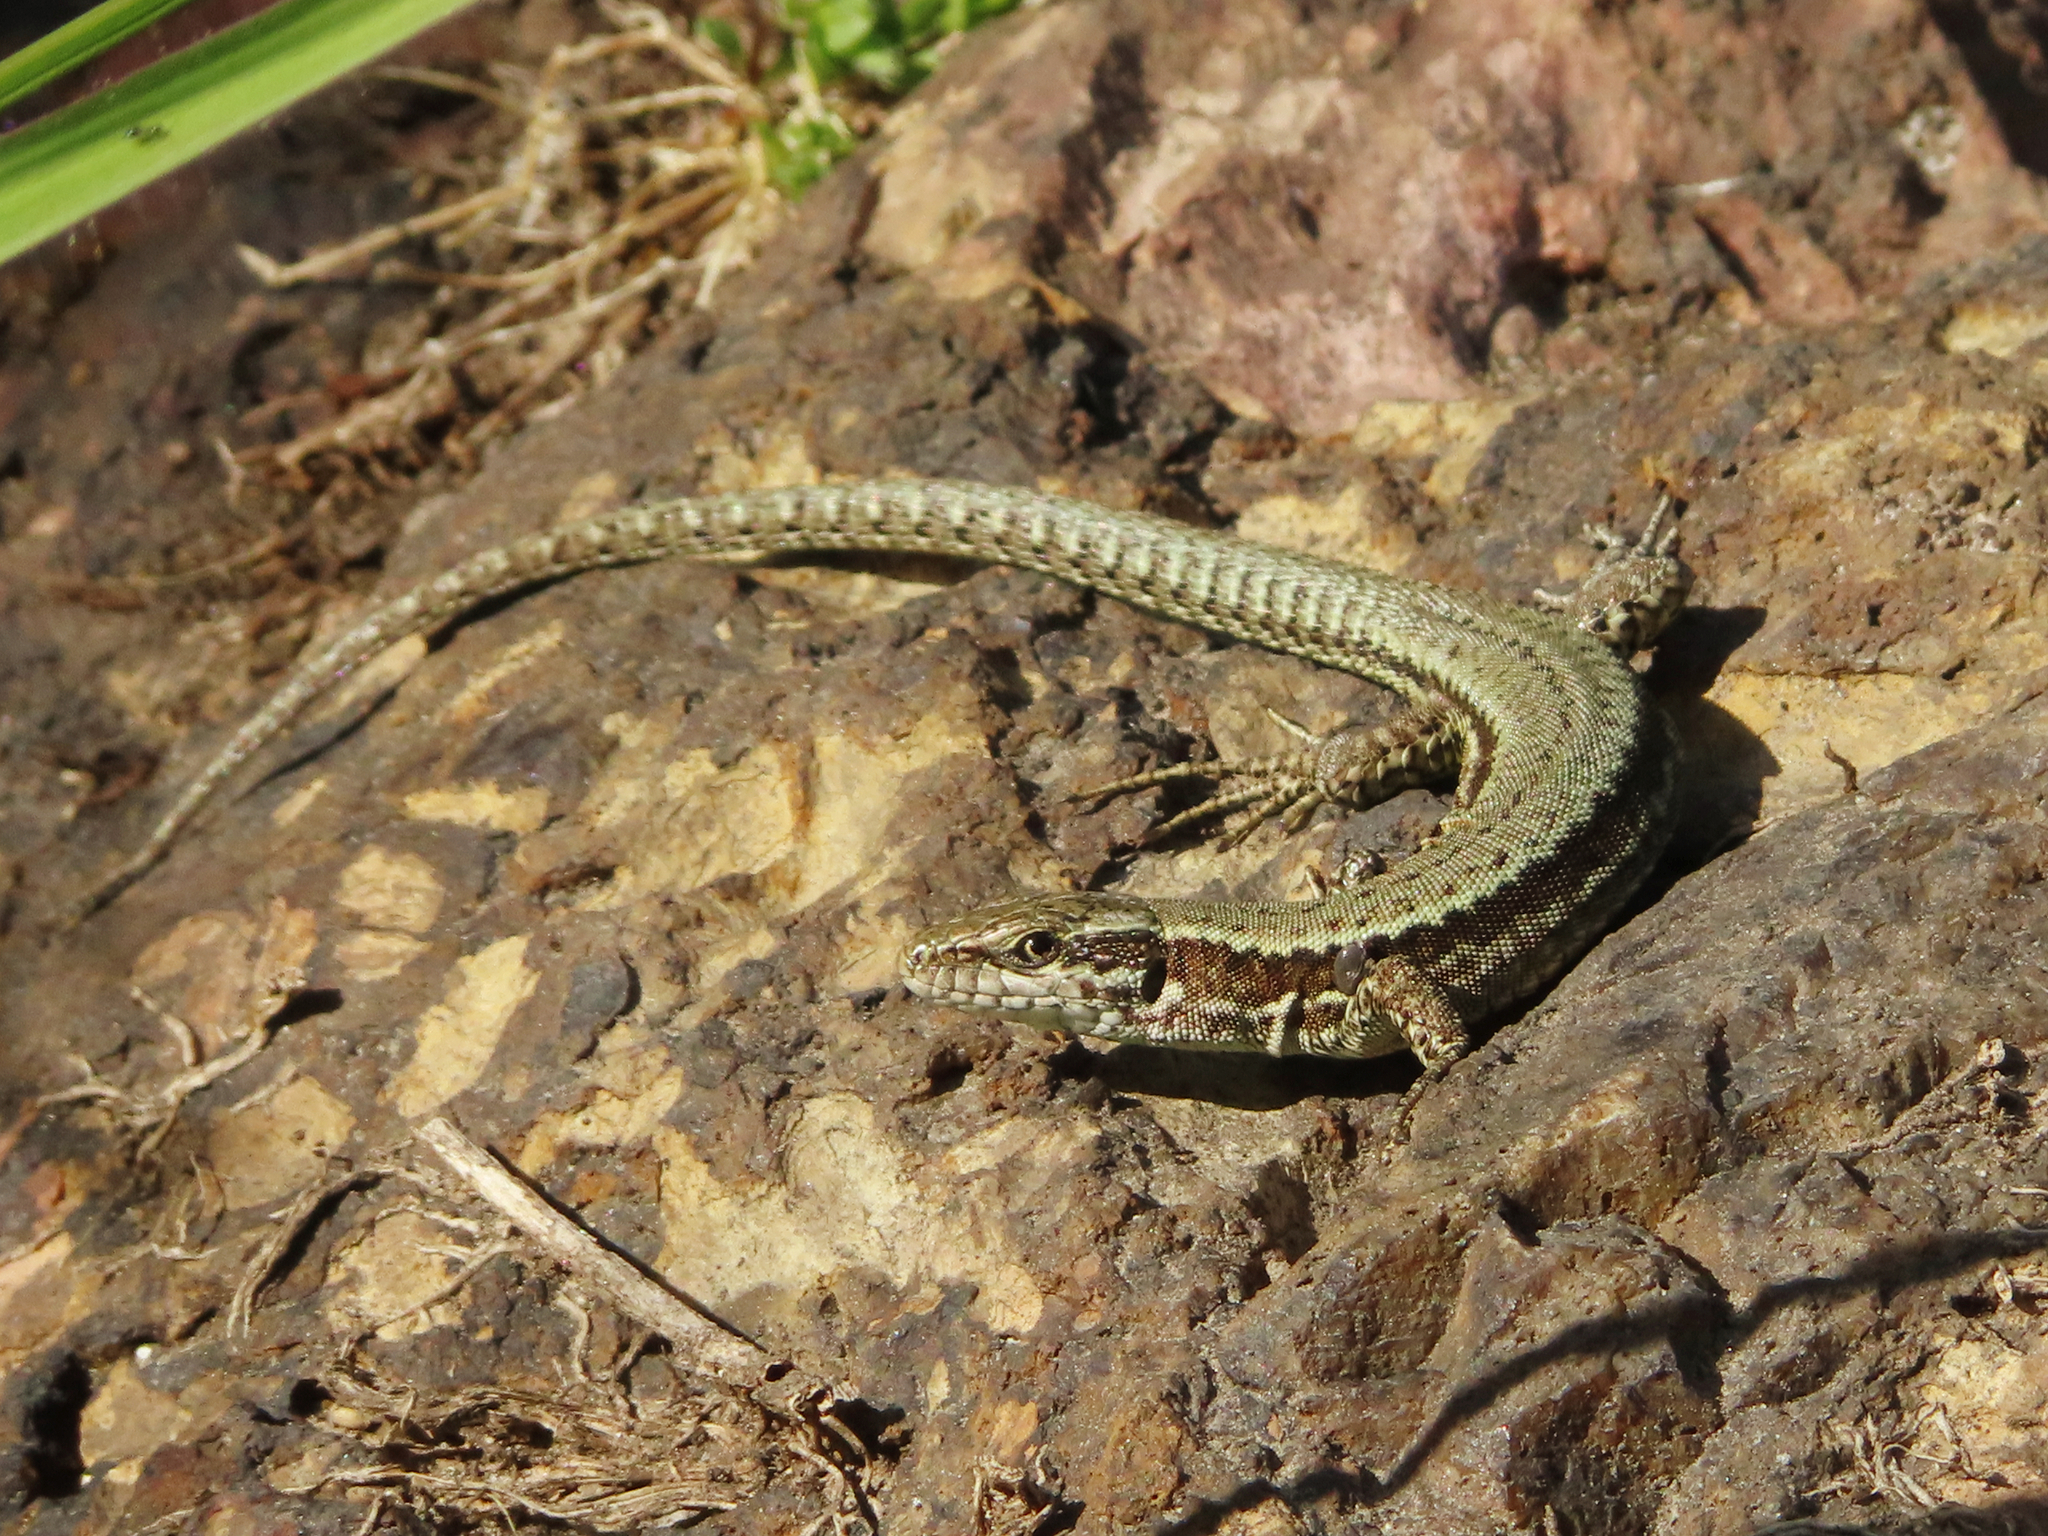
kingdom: Animalia
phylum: Chordata
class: Squamata
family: Lacertidae
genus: Podarcis
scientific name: Podarcis muralis
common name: Common wall lizard
